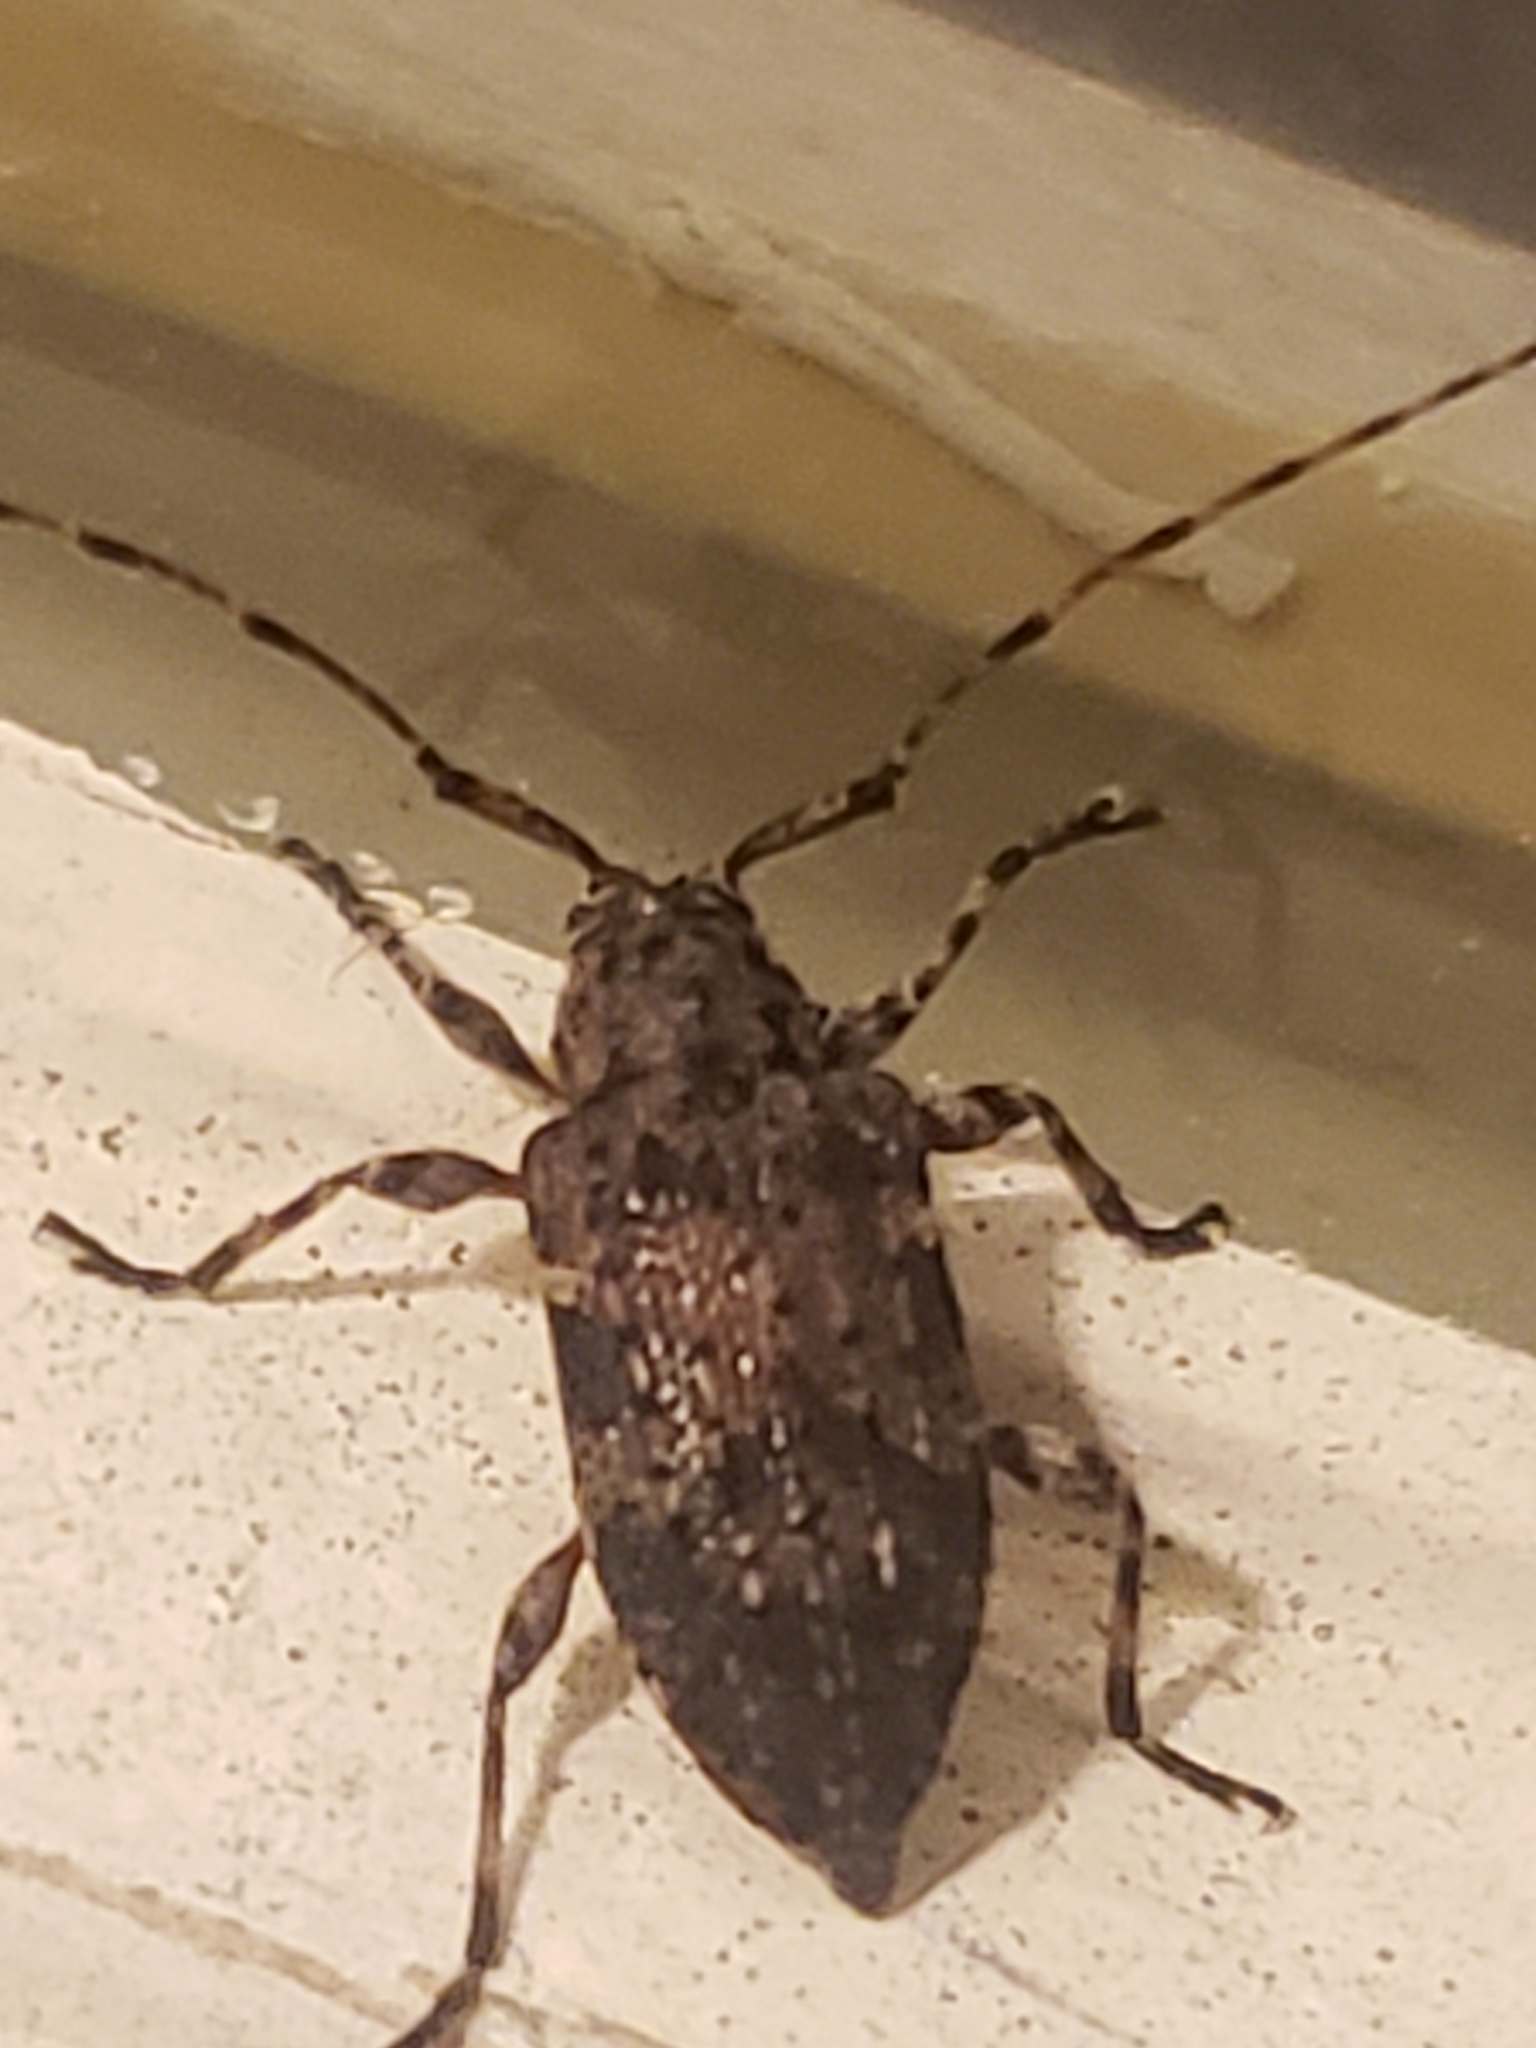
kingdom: Animalia
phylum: Arthropoda
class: Insecta
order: Coleoptera
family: Cerambycidae
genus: Astylopsis
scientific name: Astylopsis sexguttata
